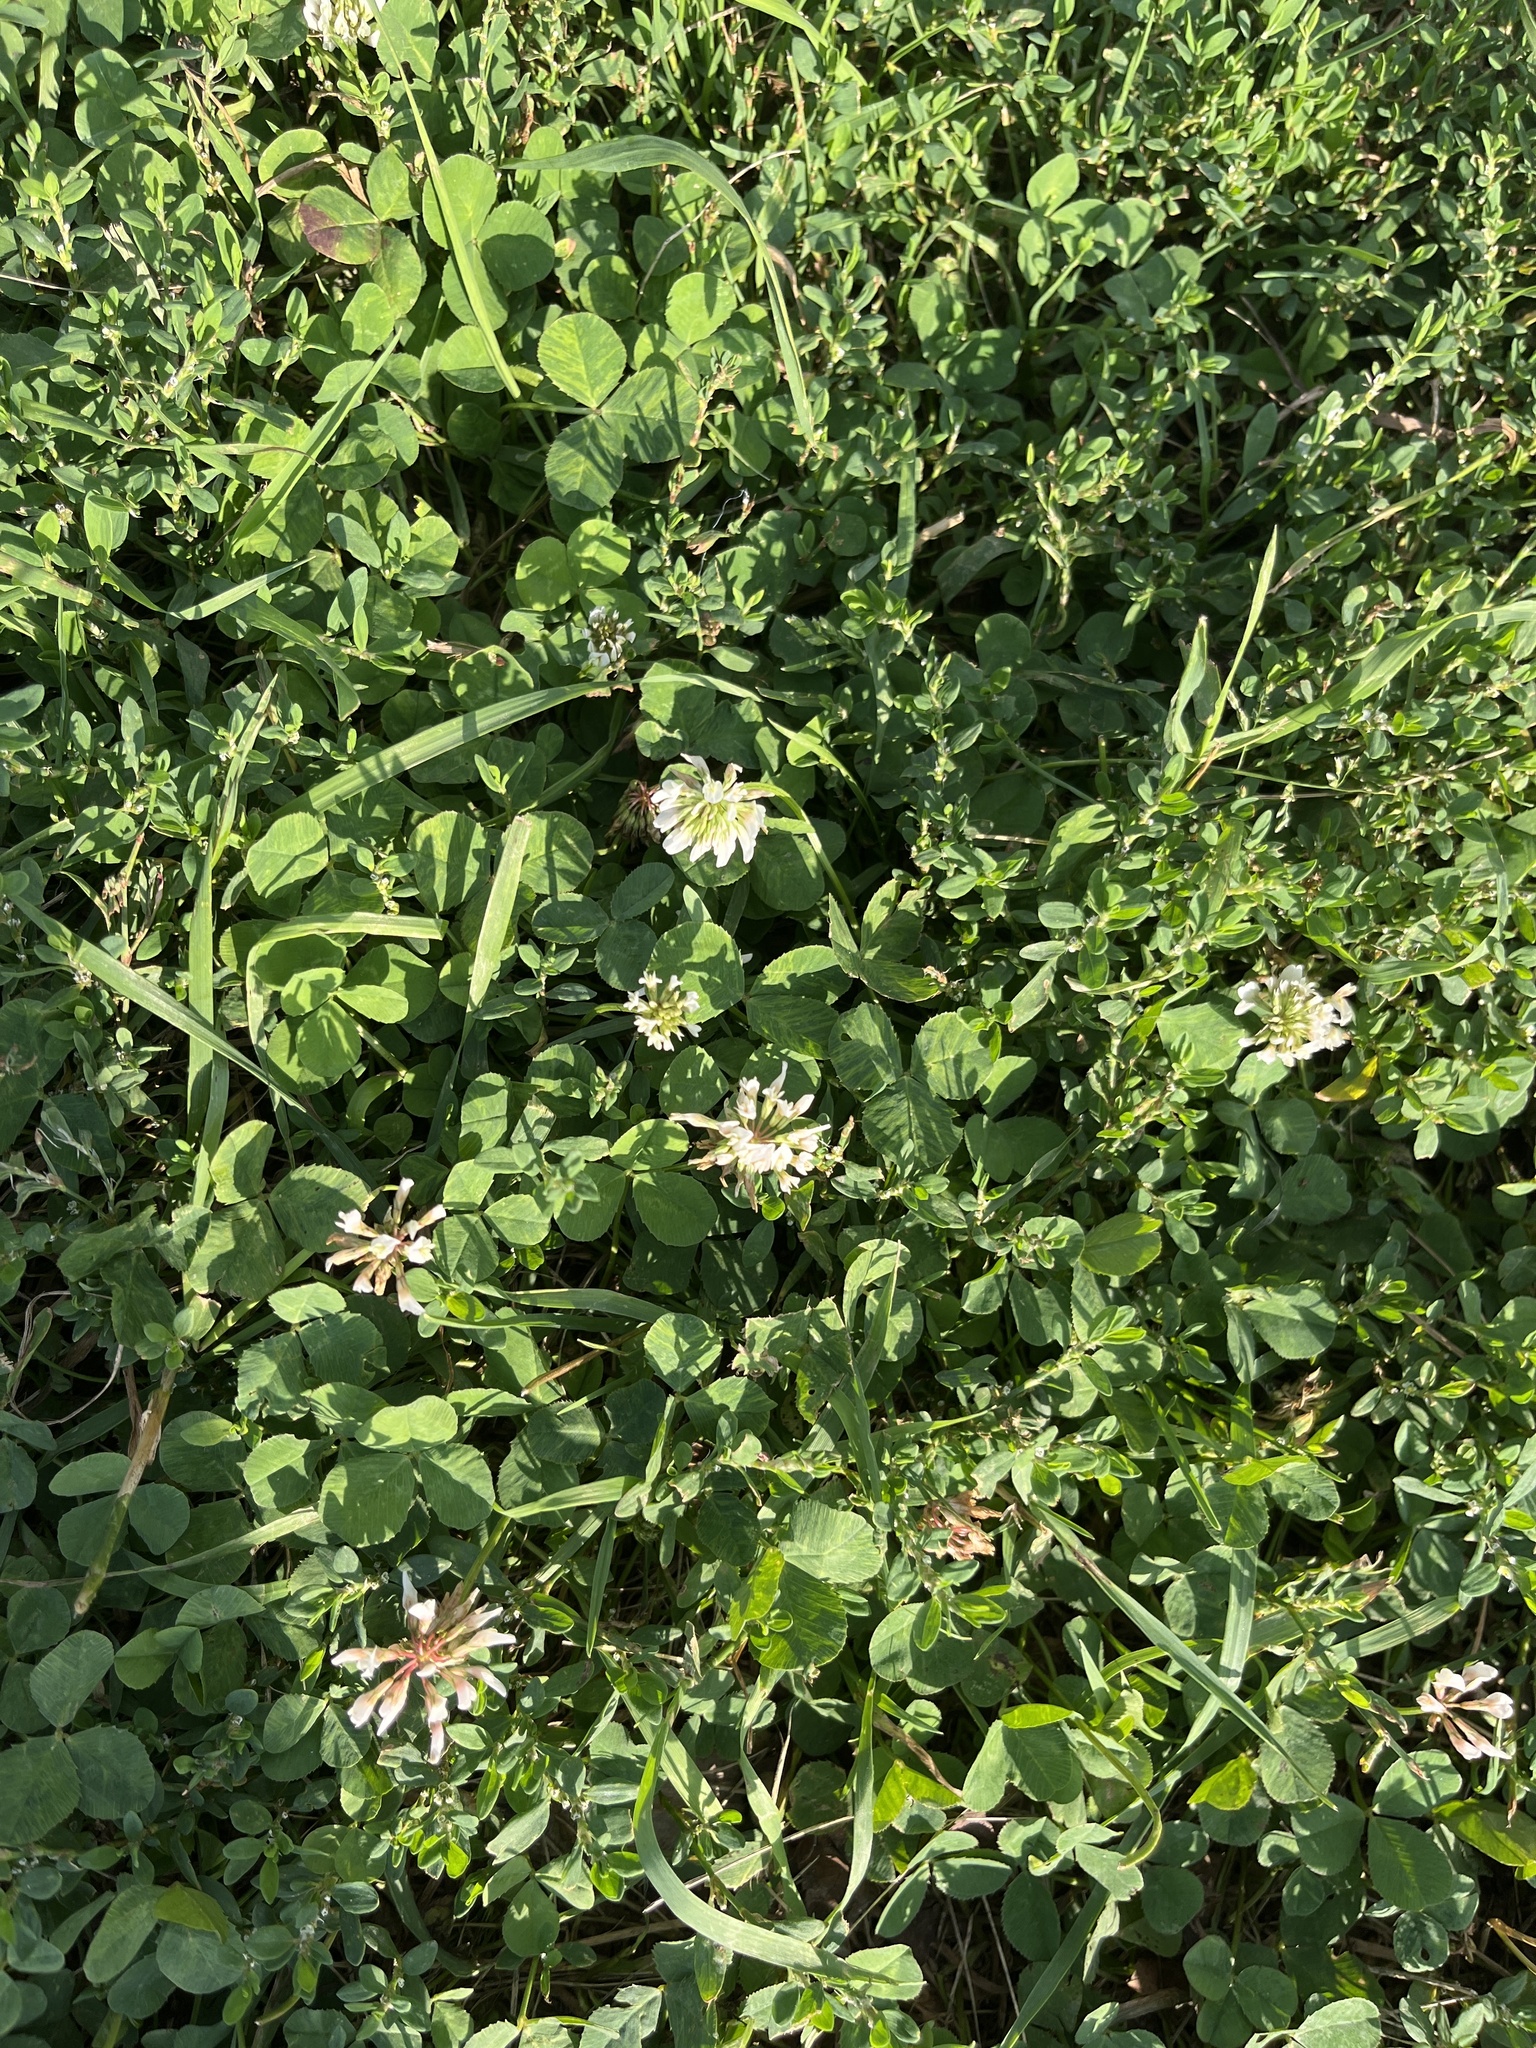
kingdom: Plantae
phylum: Tracheophyta
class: Magnoliopsida
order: Fabales
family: Fabaceae
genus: Trifolium
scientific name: Trifolium repens
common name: White clover
